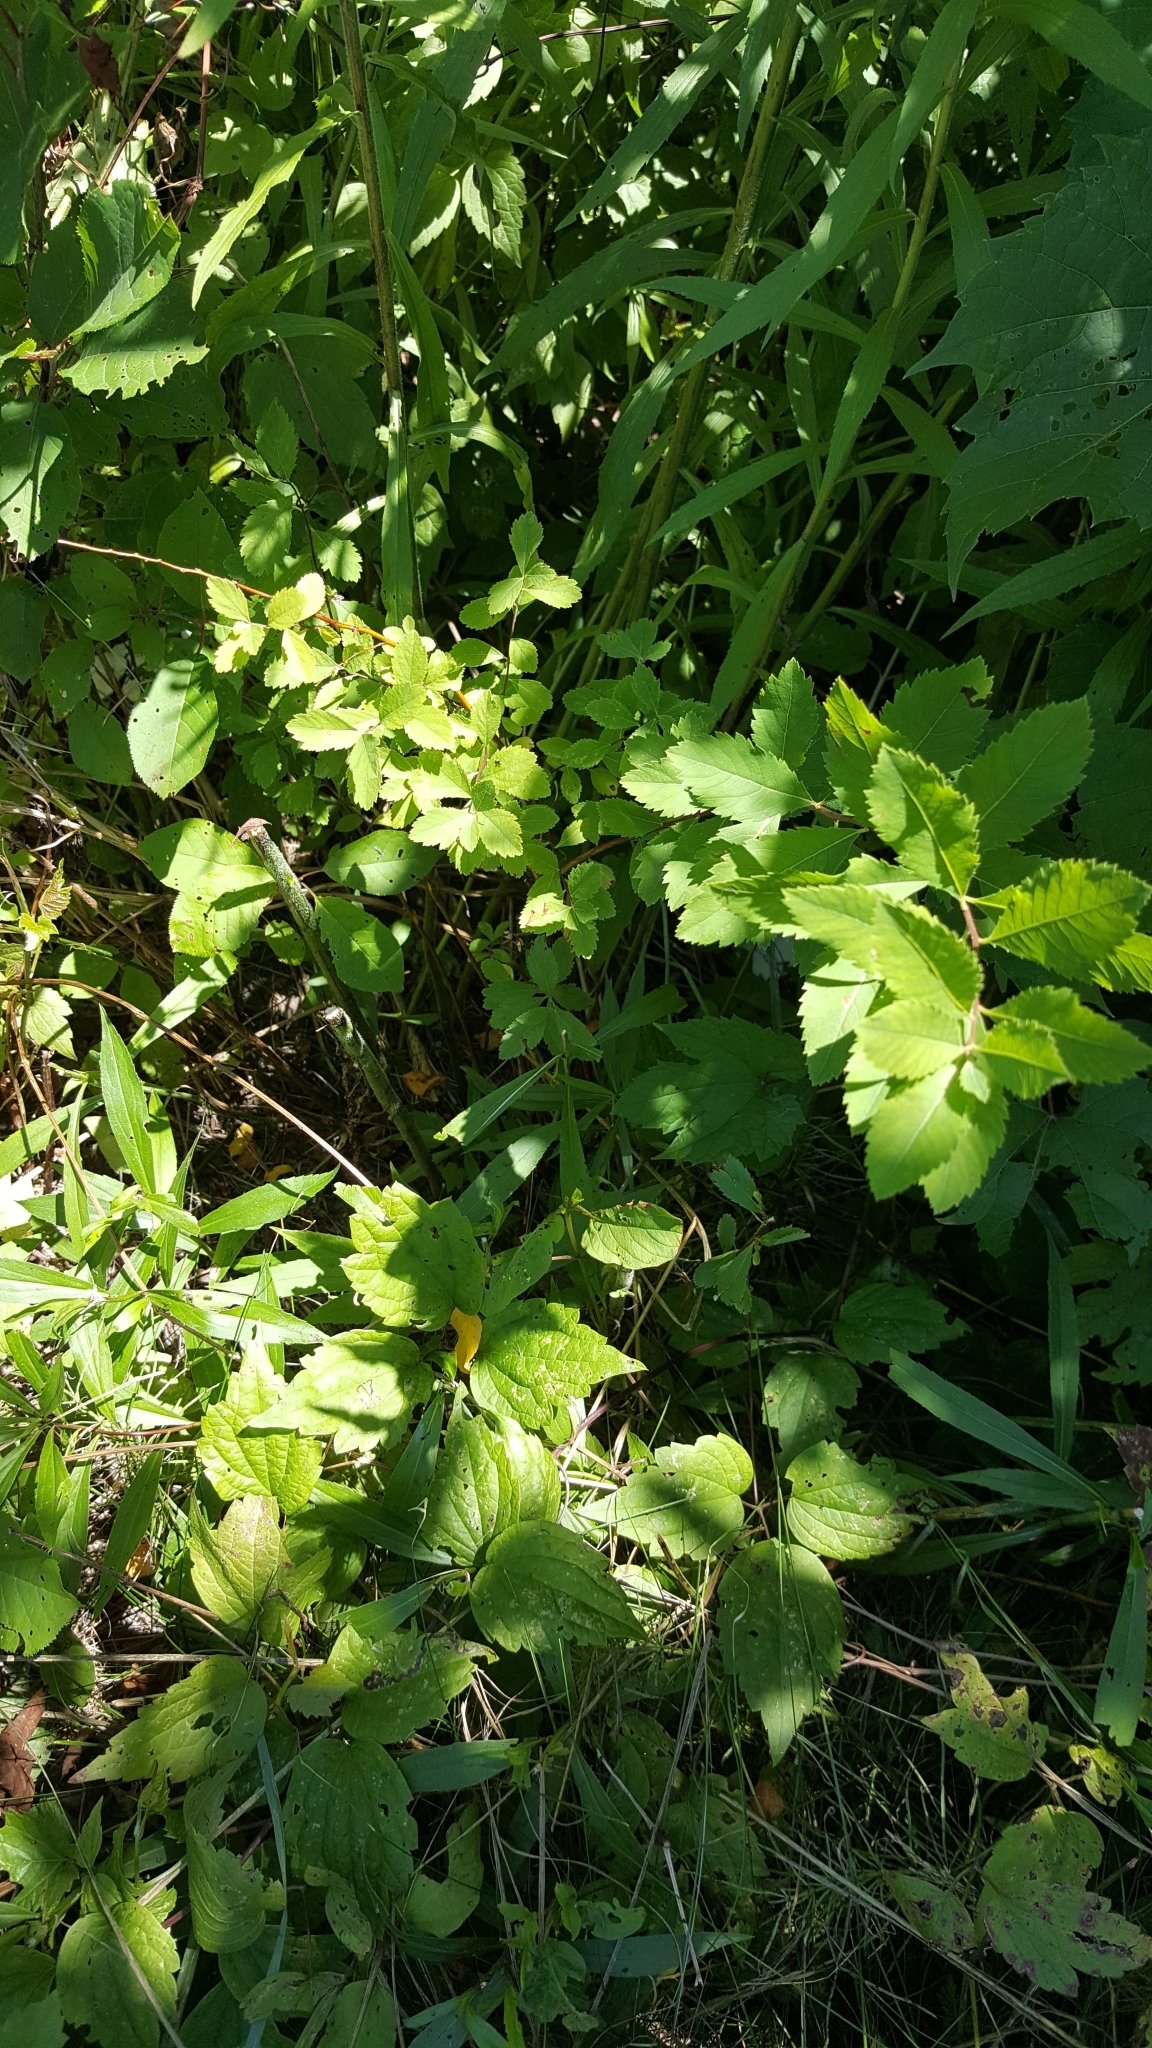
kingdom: Plantae
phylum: Tracheophyta
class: Magnoliopsida
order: Rosales
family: Rosaceae
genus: Spiraea
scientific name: Spiraea alba
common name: Pale bridewort
